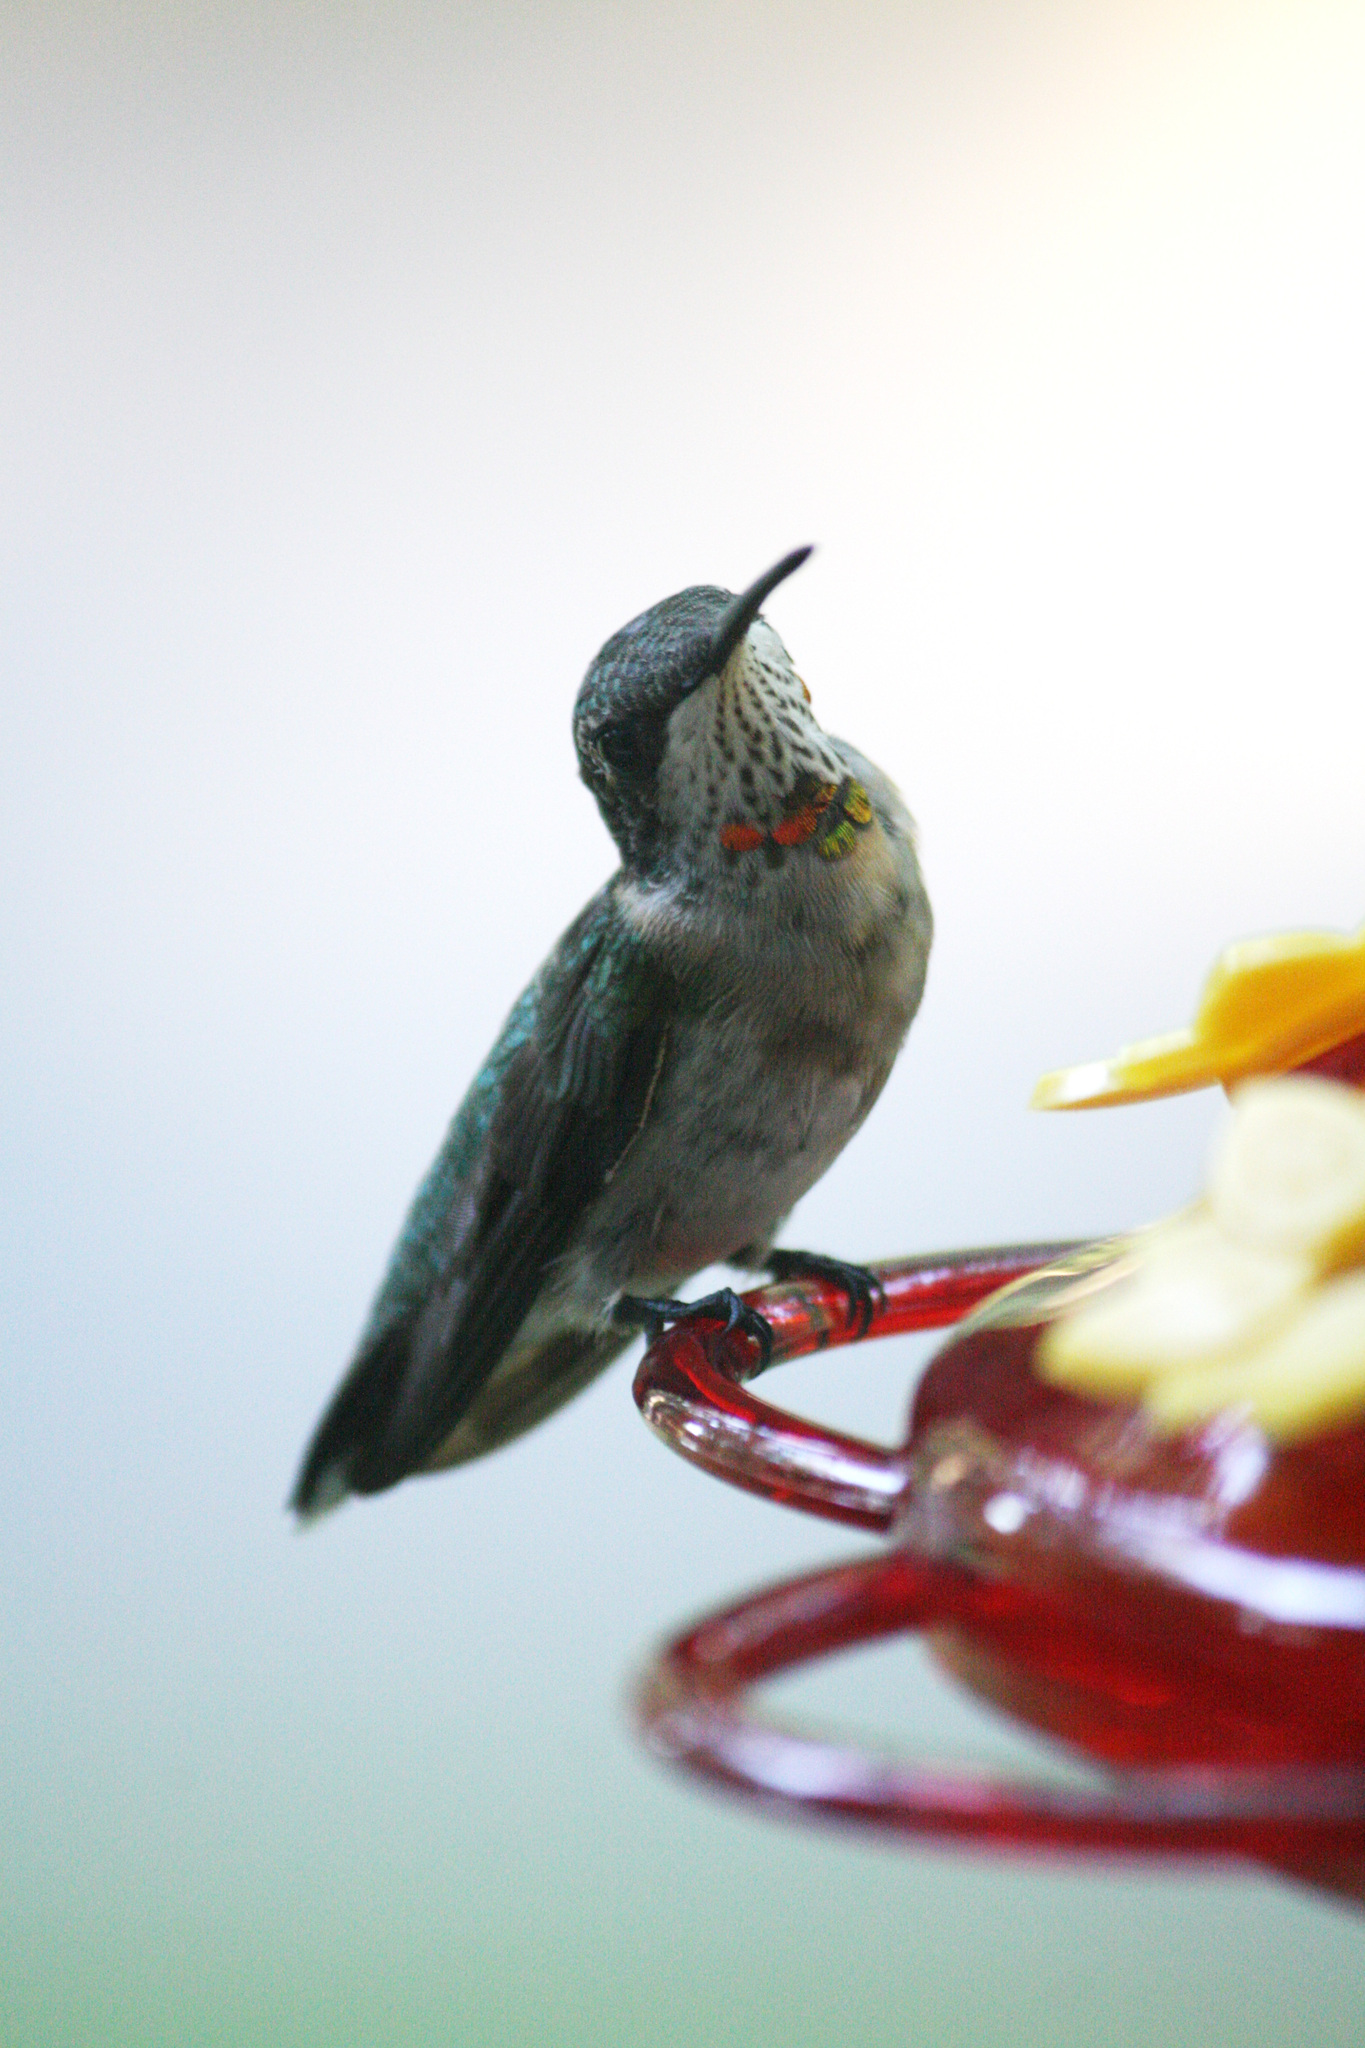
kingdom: Animalia
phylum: Chordata
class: Aves
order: Apodiformes
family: Trochilidae
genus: Archilochus
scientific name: Archilochus colubris
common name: Ruby-throated hummingbird
